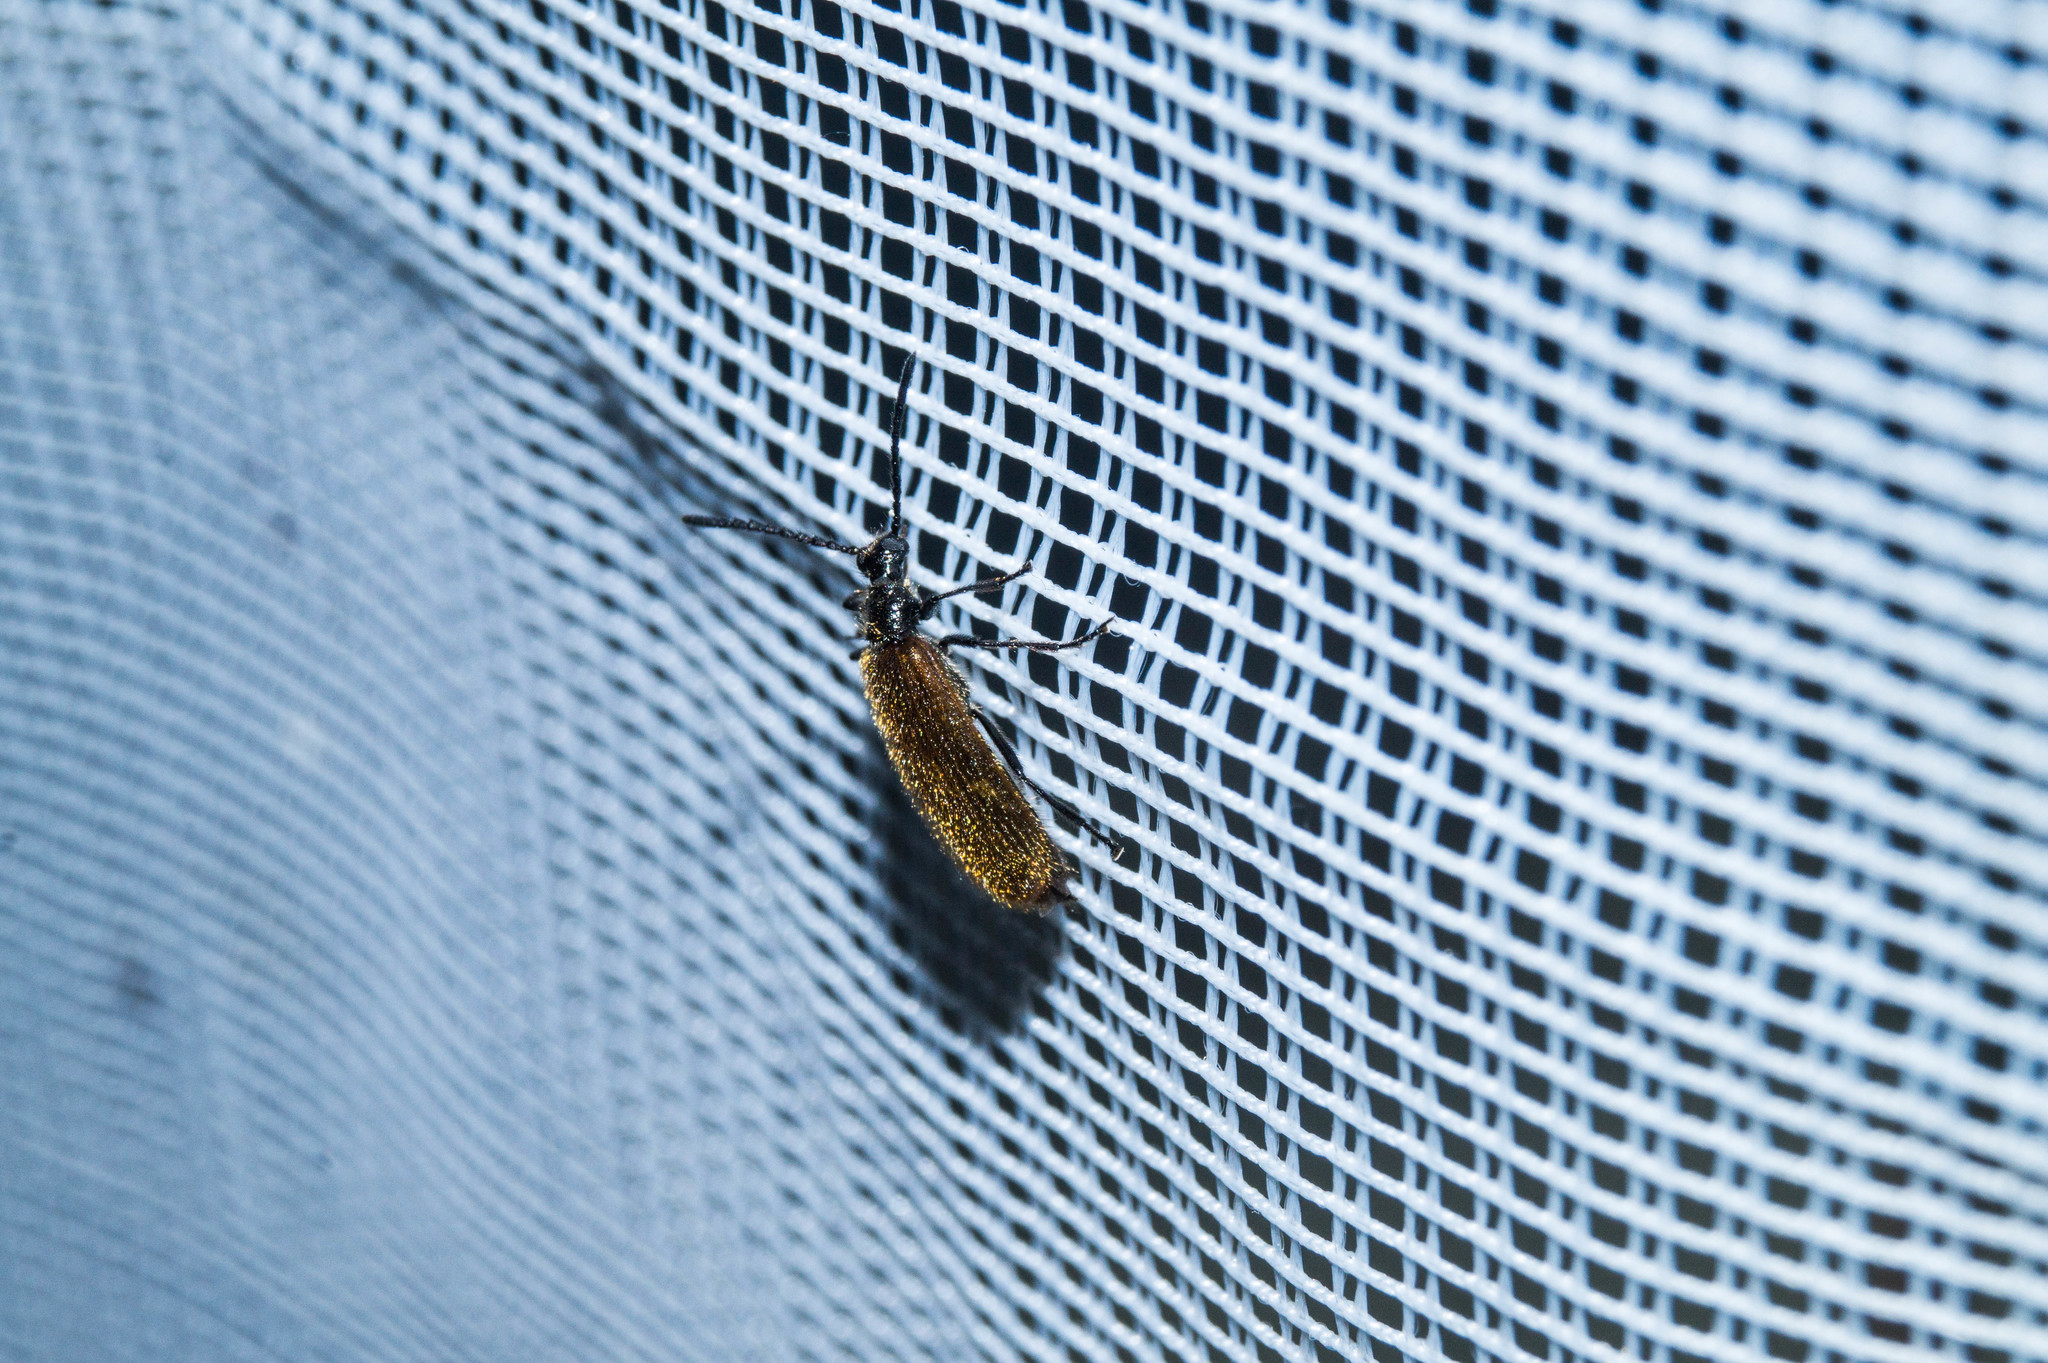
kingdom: Animalia
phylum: Arthropoda
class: Insecta
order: Coleoptera
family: Tenebrionidae
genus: Lagria
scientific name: Lagria hirta
